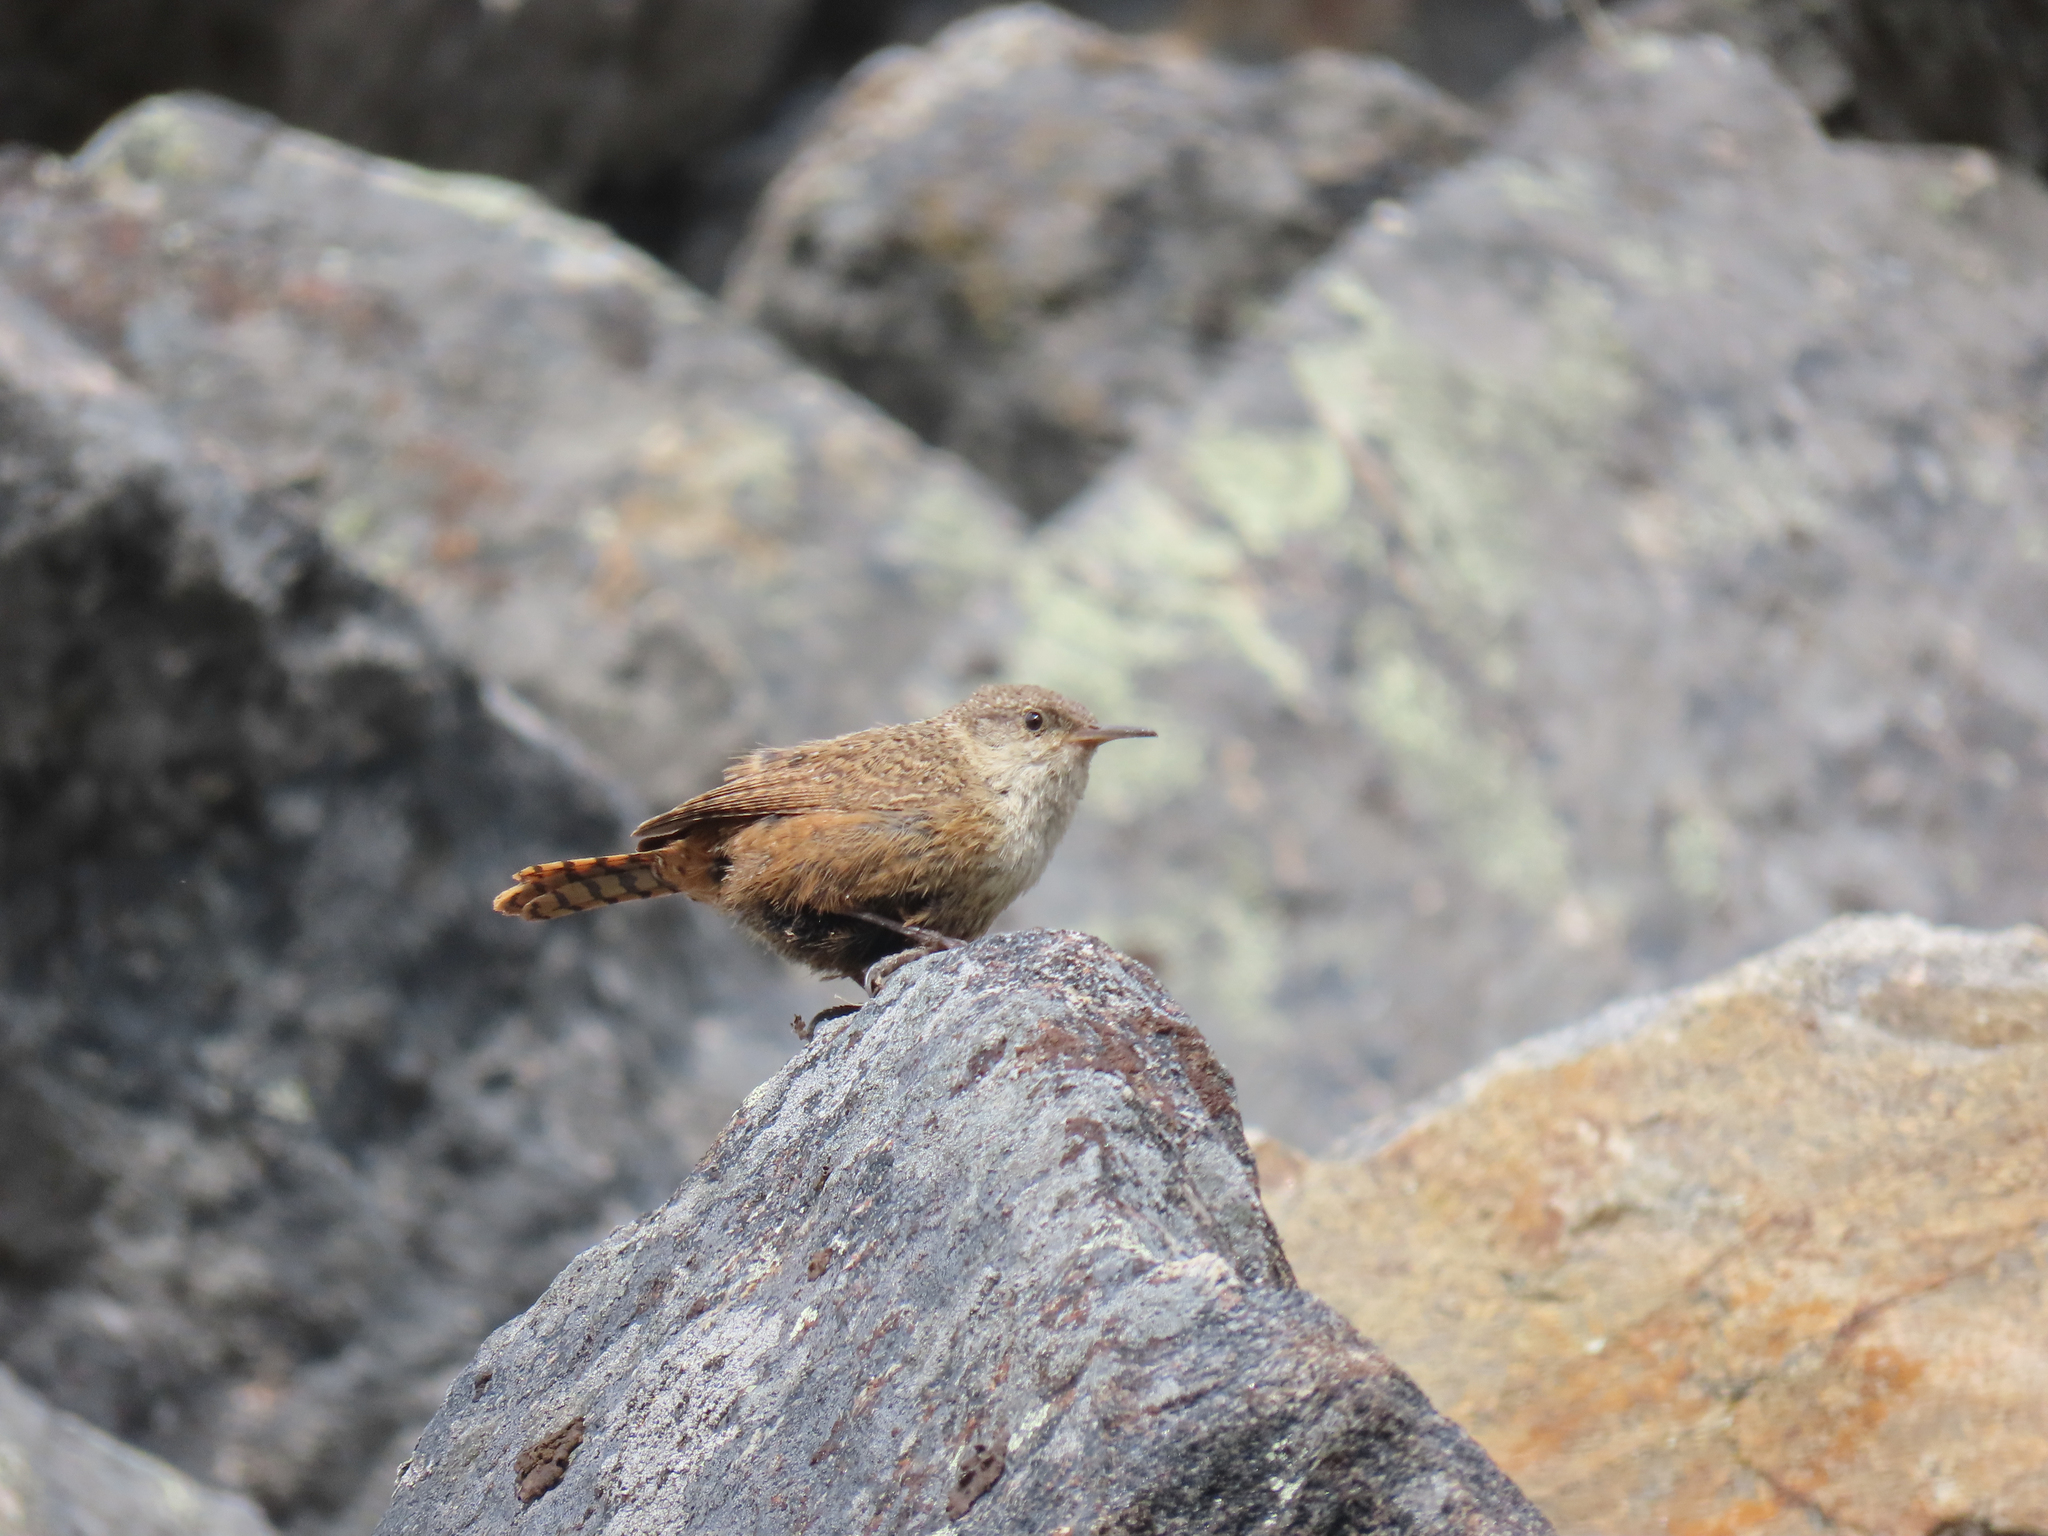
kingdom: Animalia
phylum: Chordata
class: Aves
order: Passeriformes
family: Troglodytidae
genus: Catherpes
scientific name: Catherpes mexicanus
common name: Canyon wren
